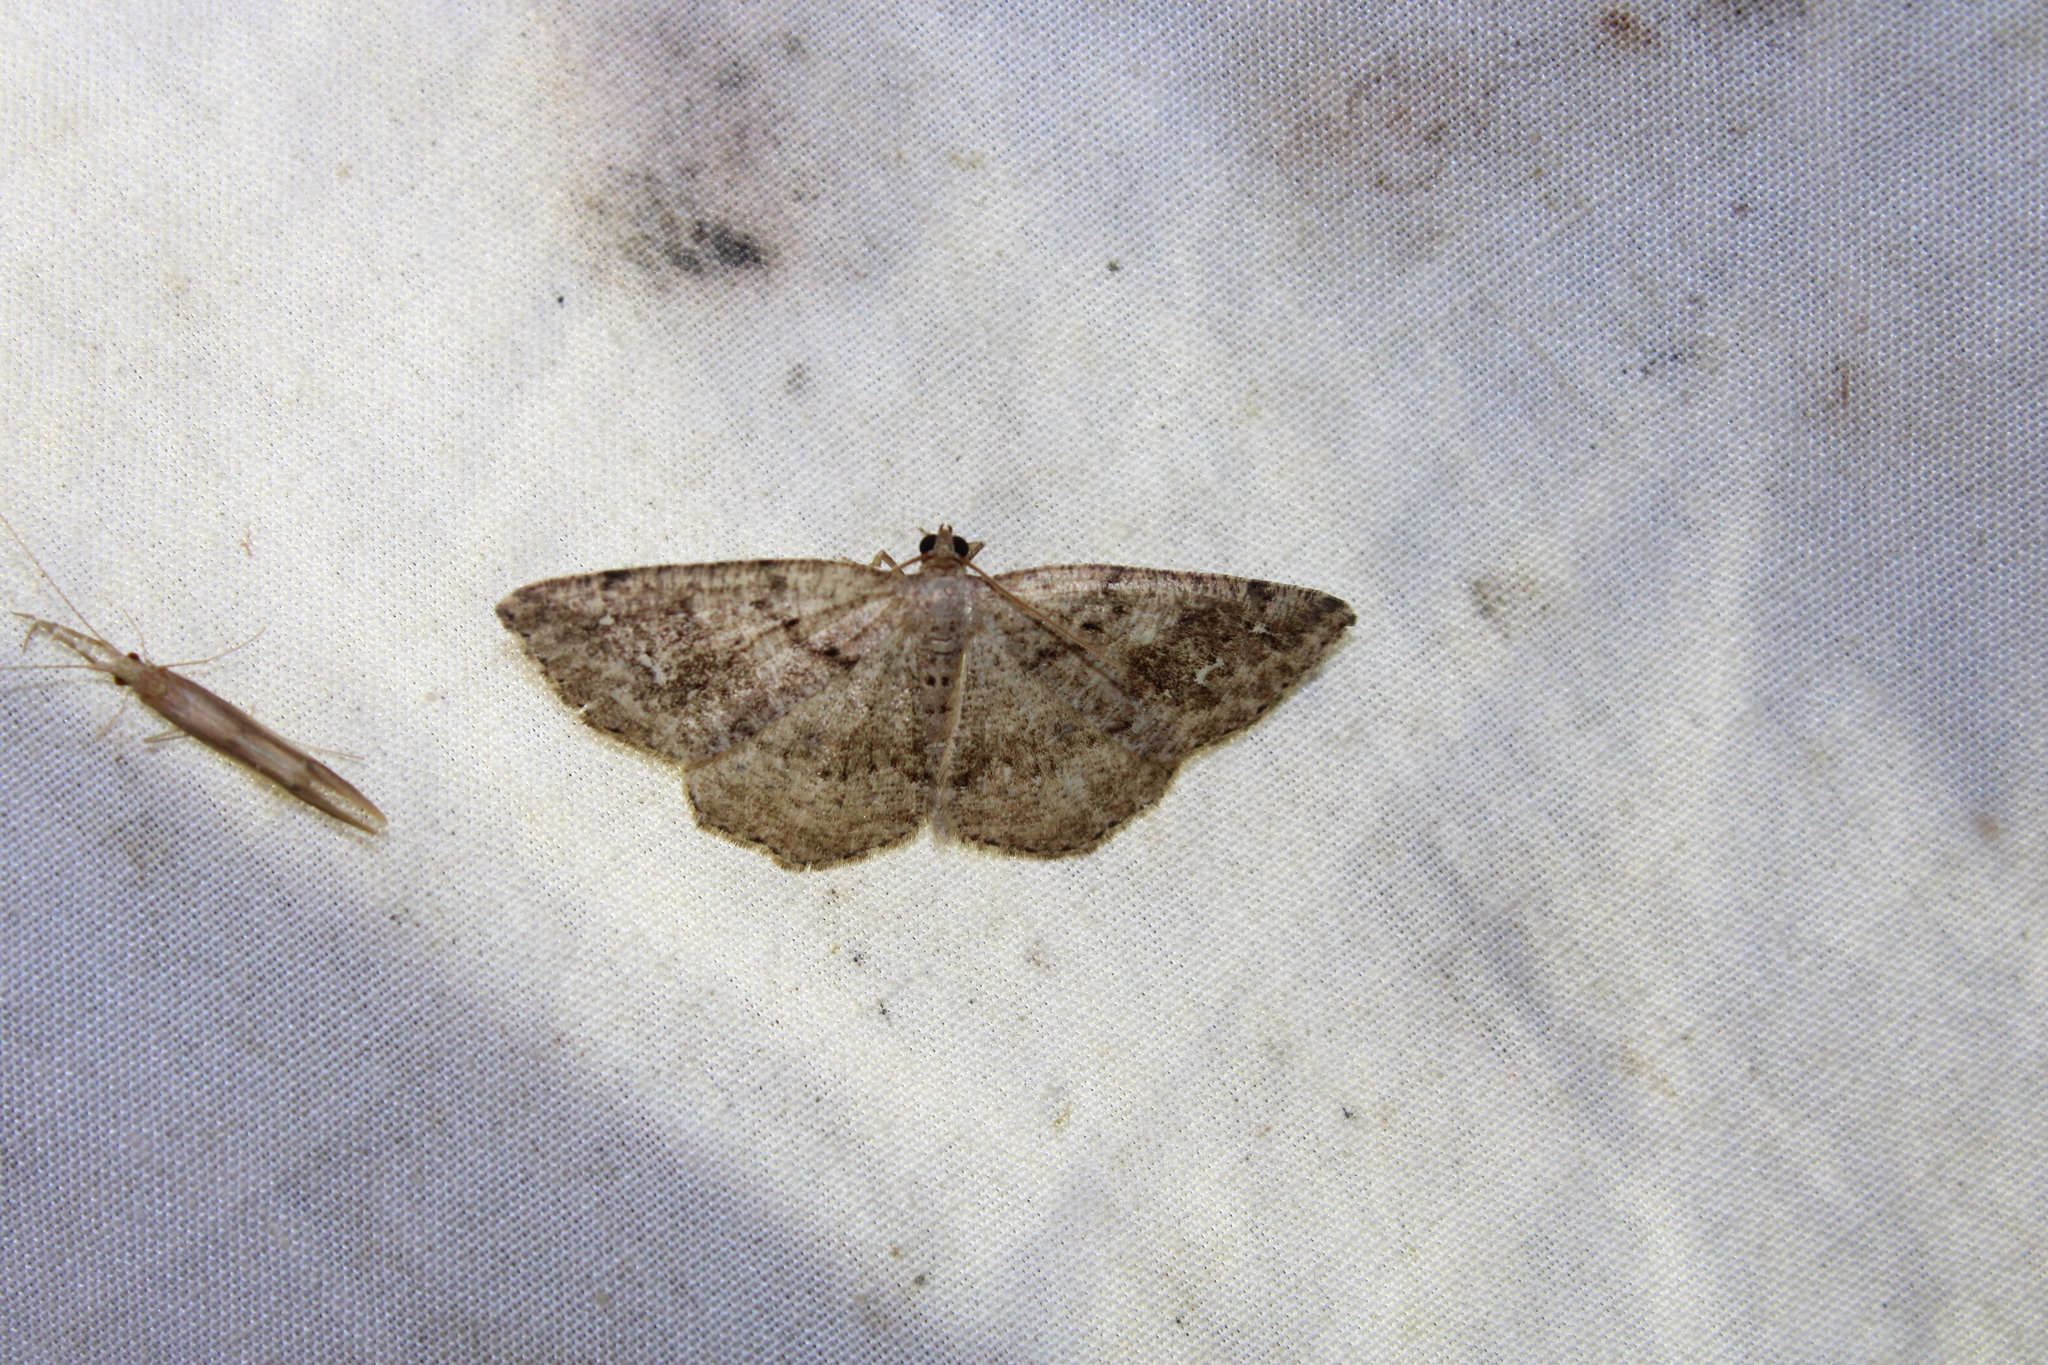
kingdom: Animalia
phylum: Arthropoda
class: Insecta
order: Lepidoptera
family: Geometridae
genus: Homochlodes
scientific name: Homochlodes fritillaria
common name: Pale homochlodes
